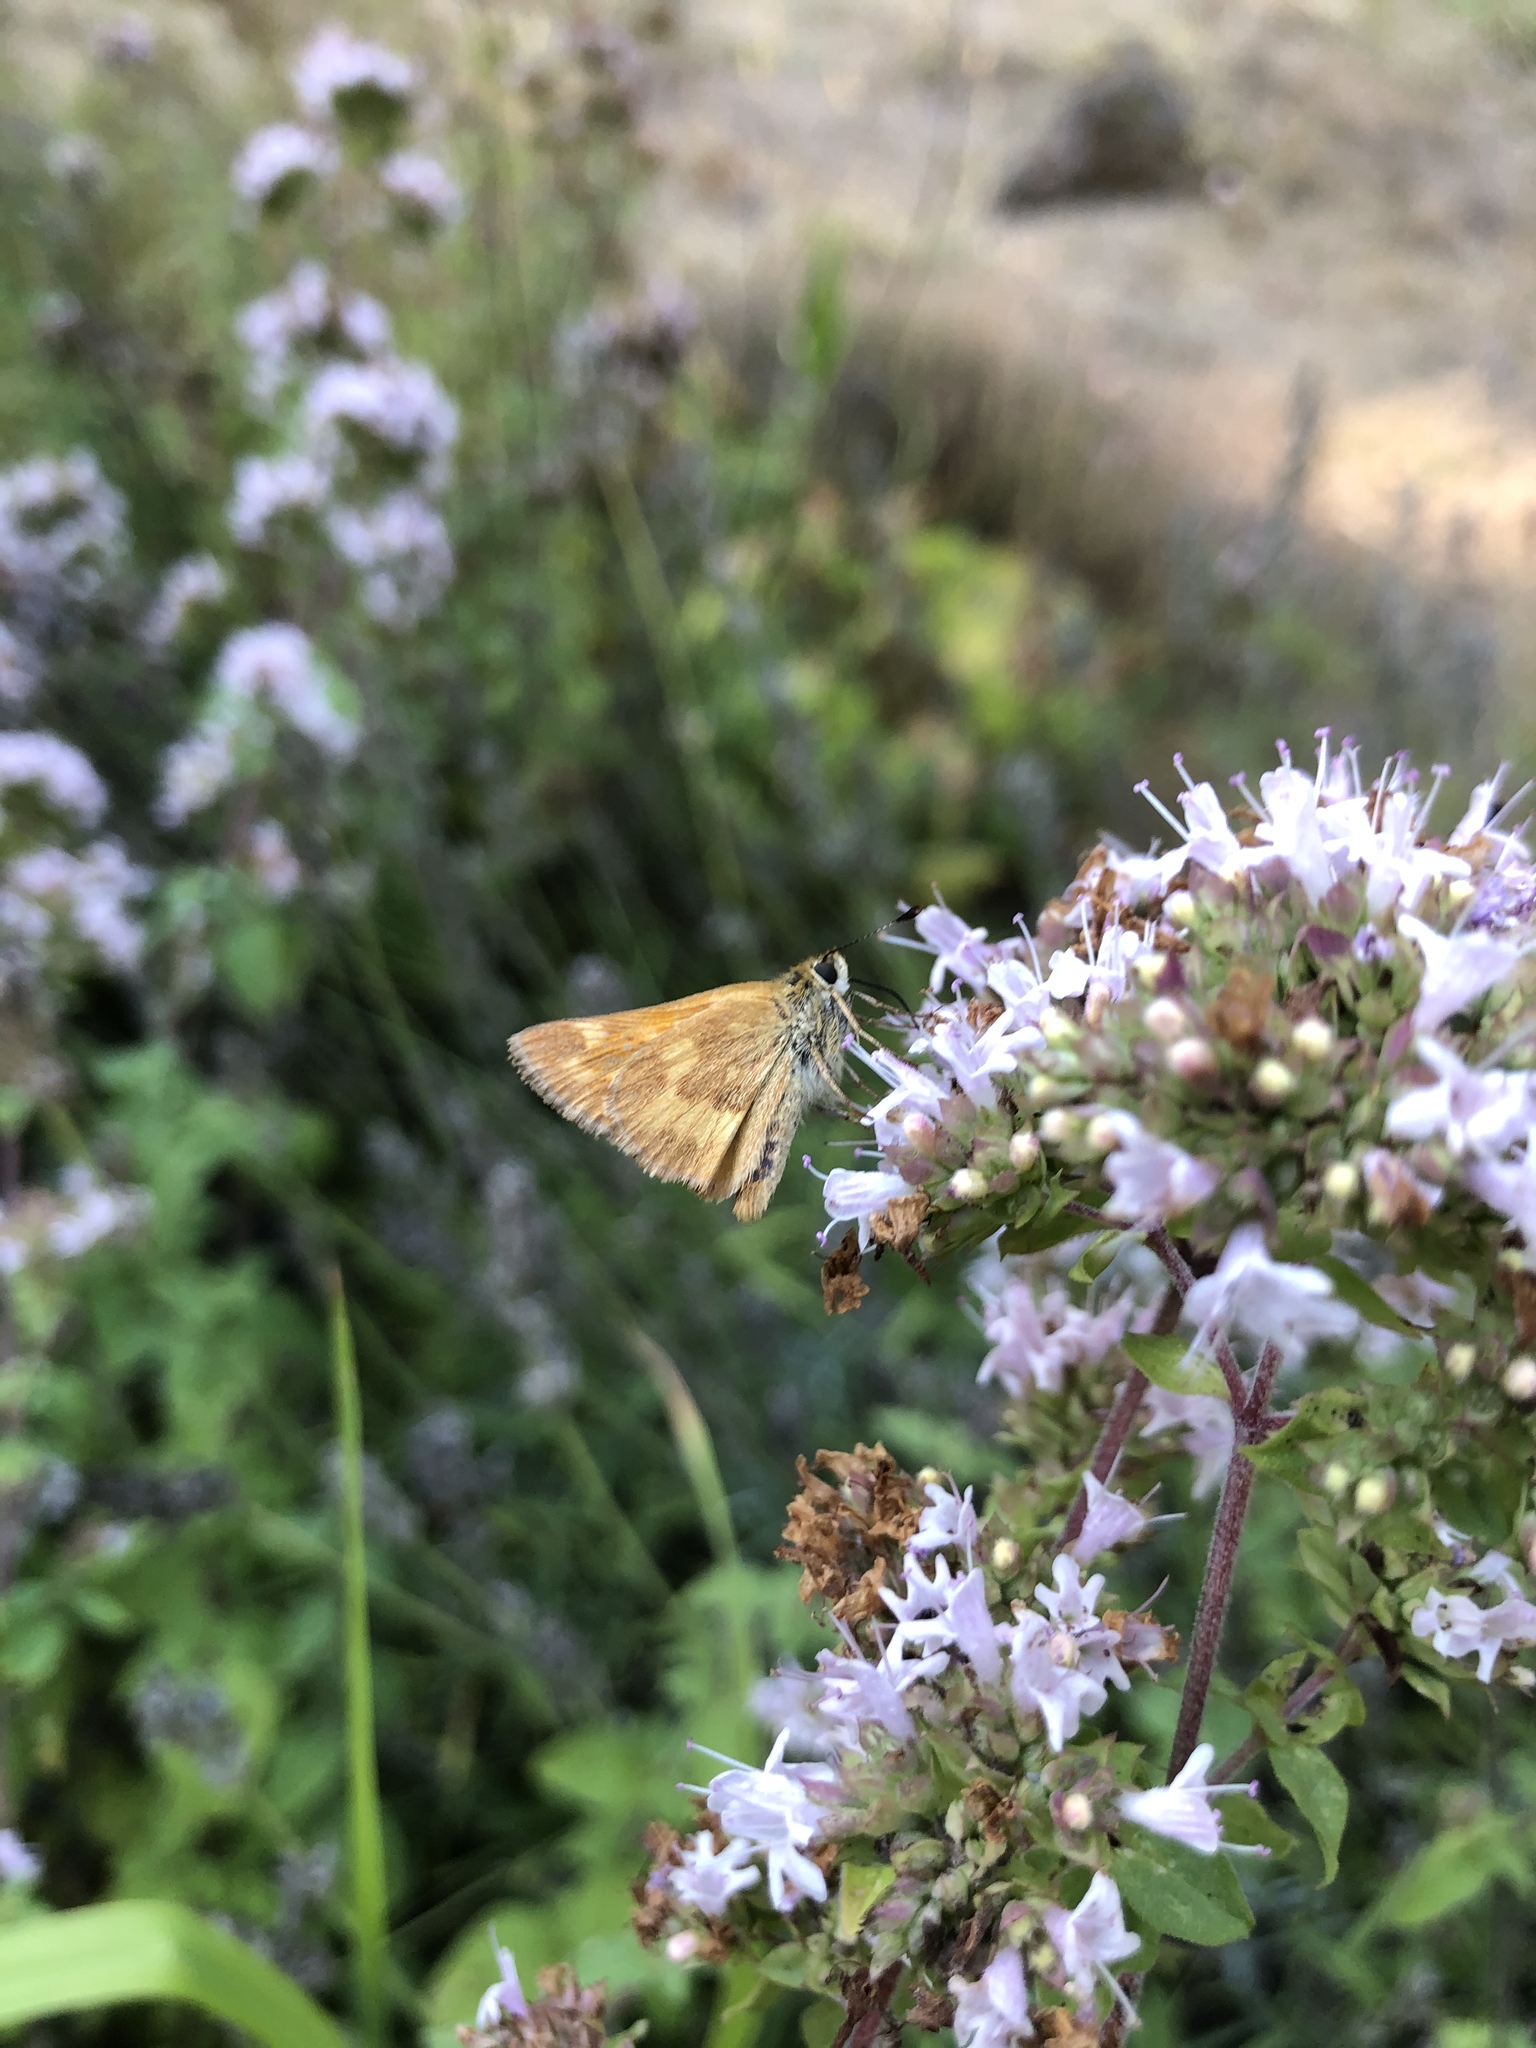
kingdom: Animalia
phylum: Arthropoda
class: Insecta
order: Lepidoptera
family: Hesperiidae
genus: Ochlodes
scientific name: Ochlodes sylvanoides
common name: Woodland skipper
